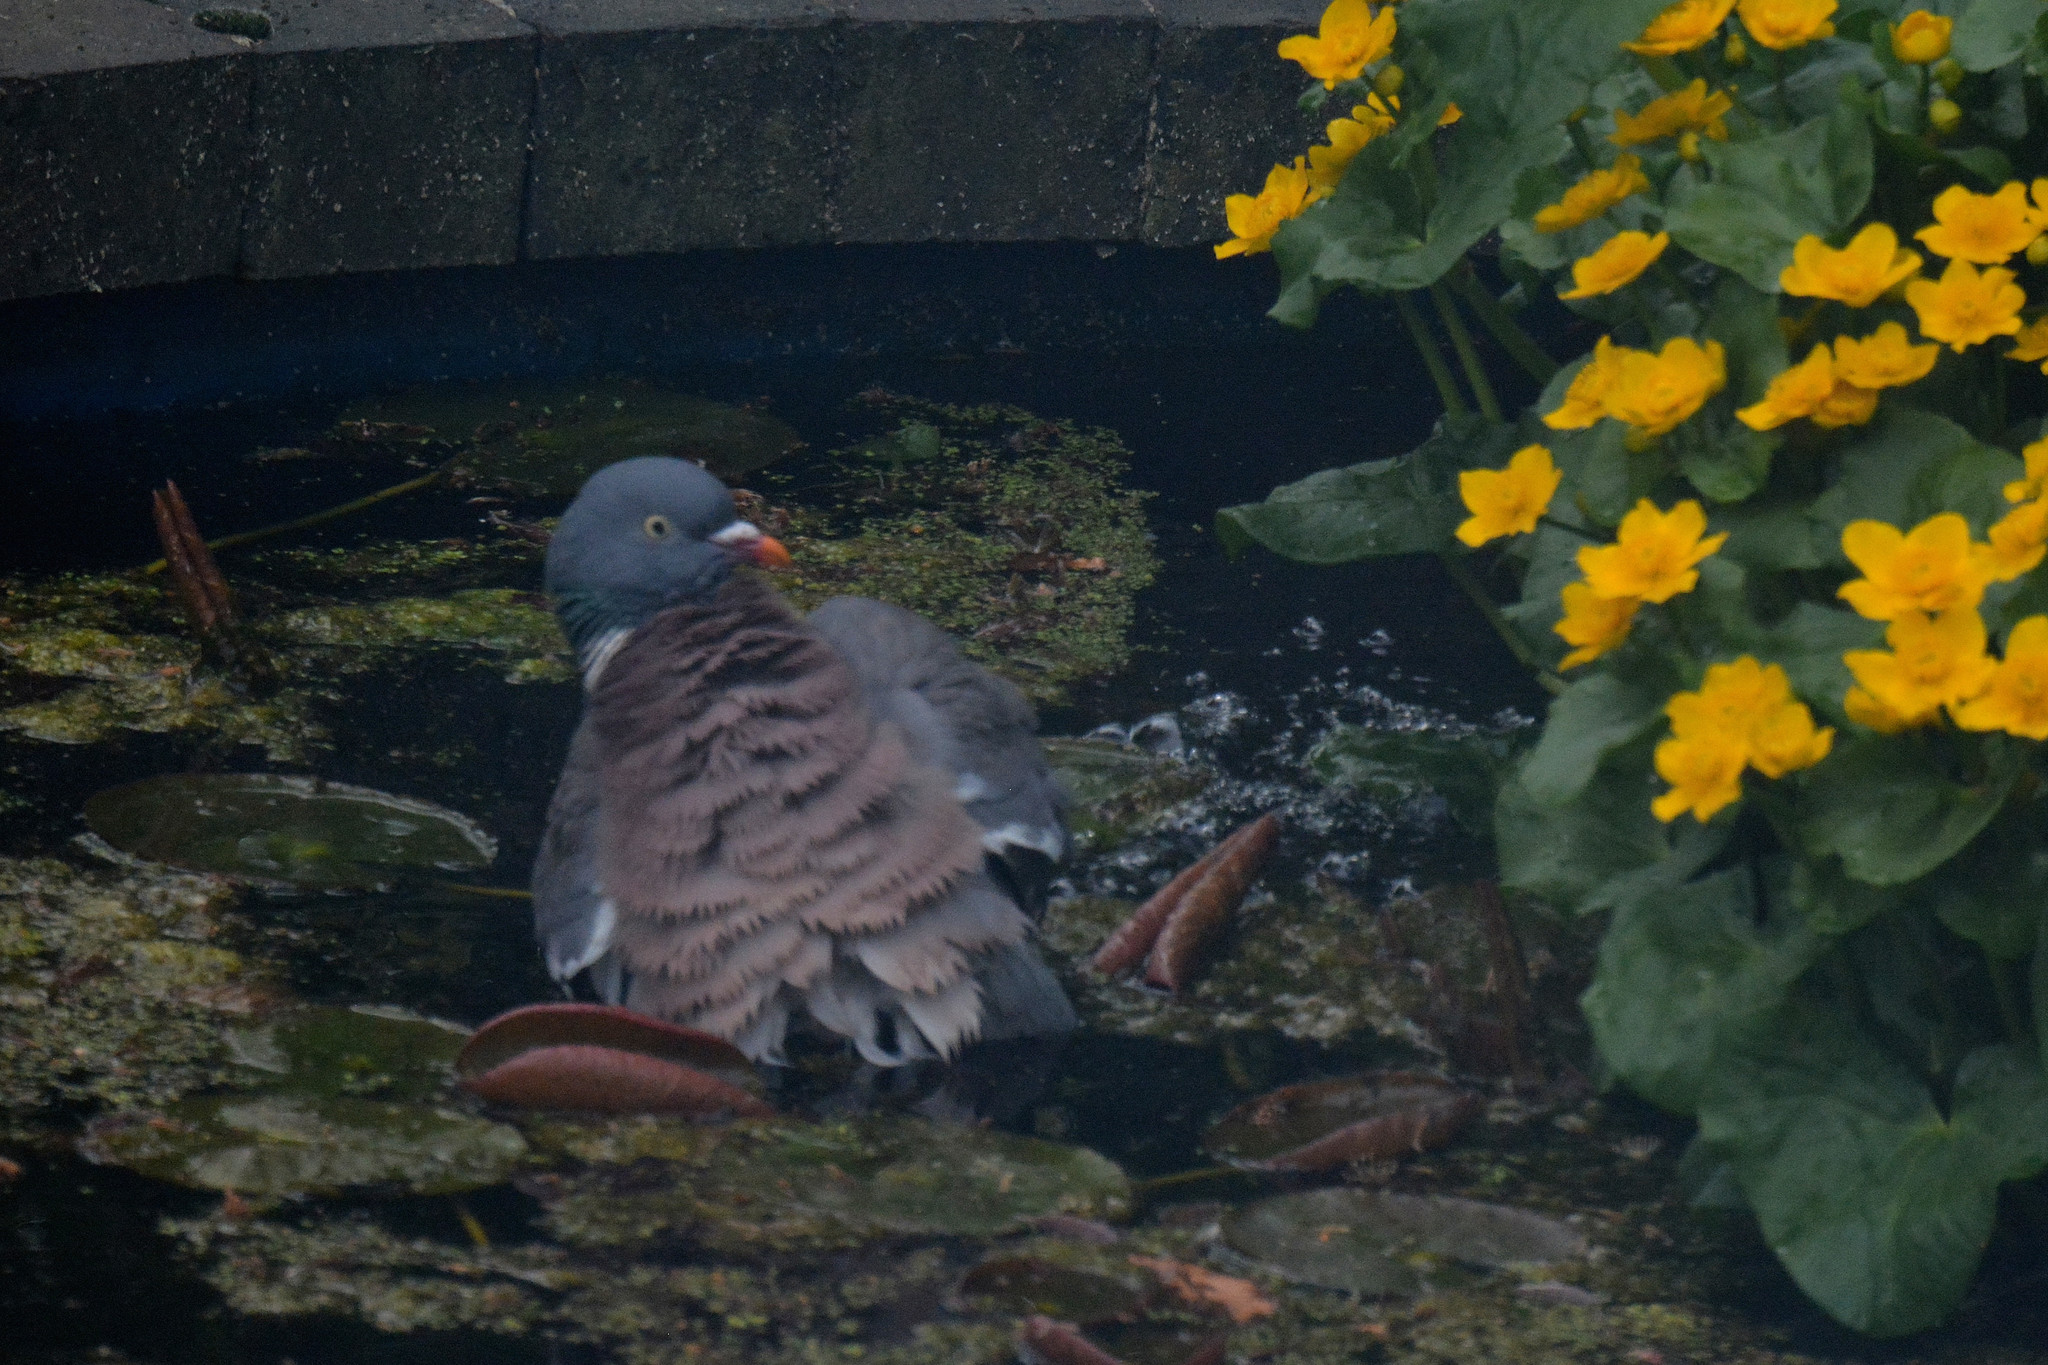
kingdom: Animalia
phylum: Chordata
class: Aves
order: Columbiformes
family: Columbidae
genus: Columba
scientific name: Columba palumbus
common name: Common wood pigeon
